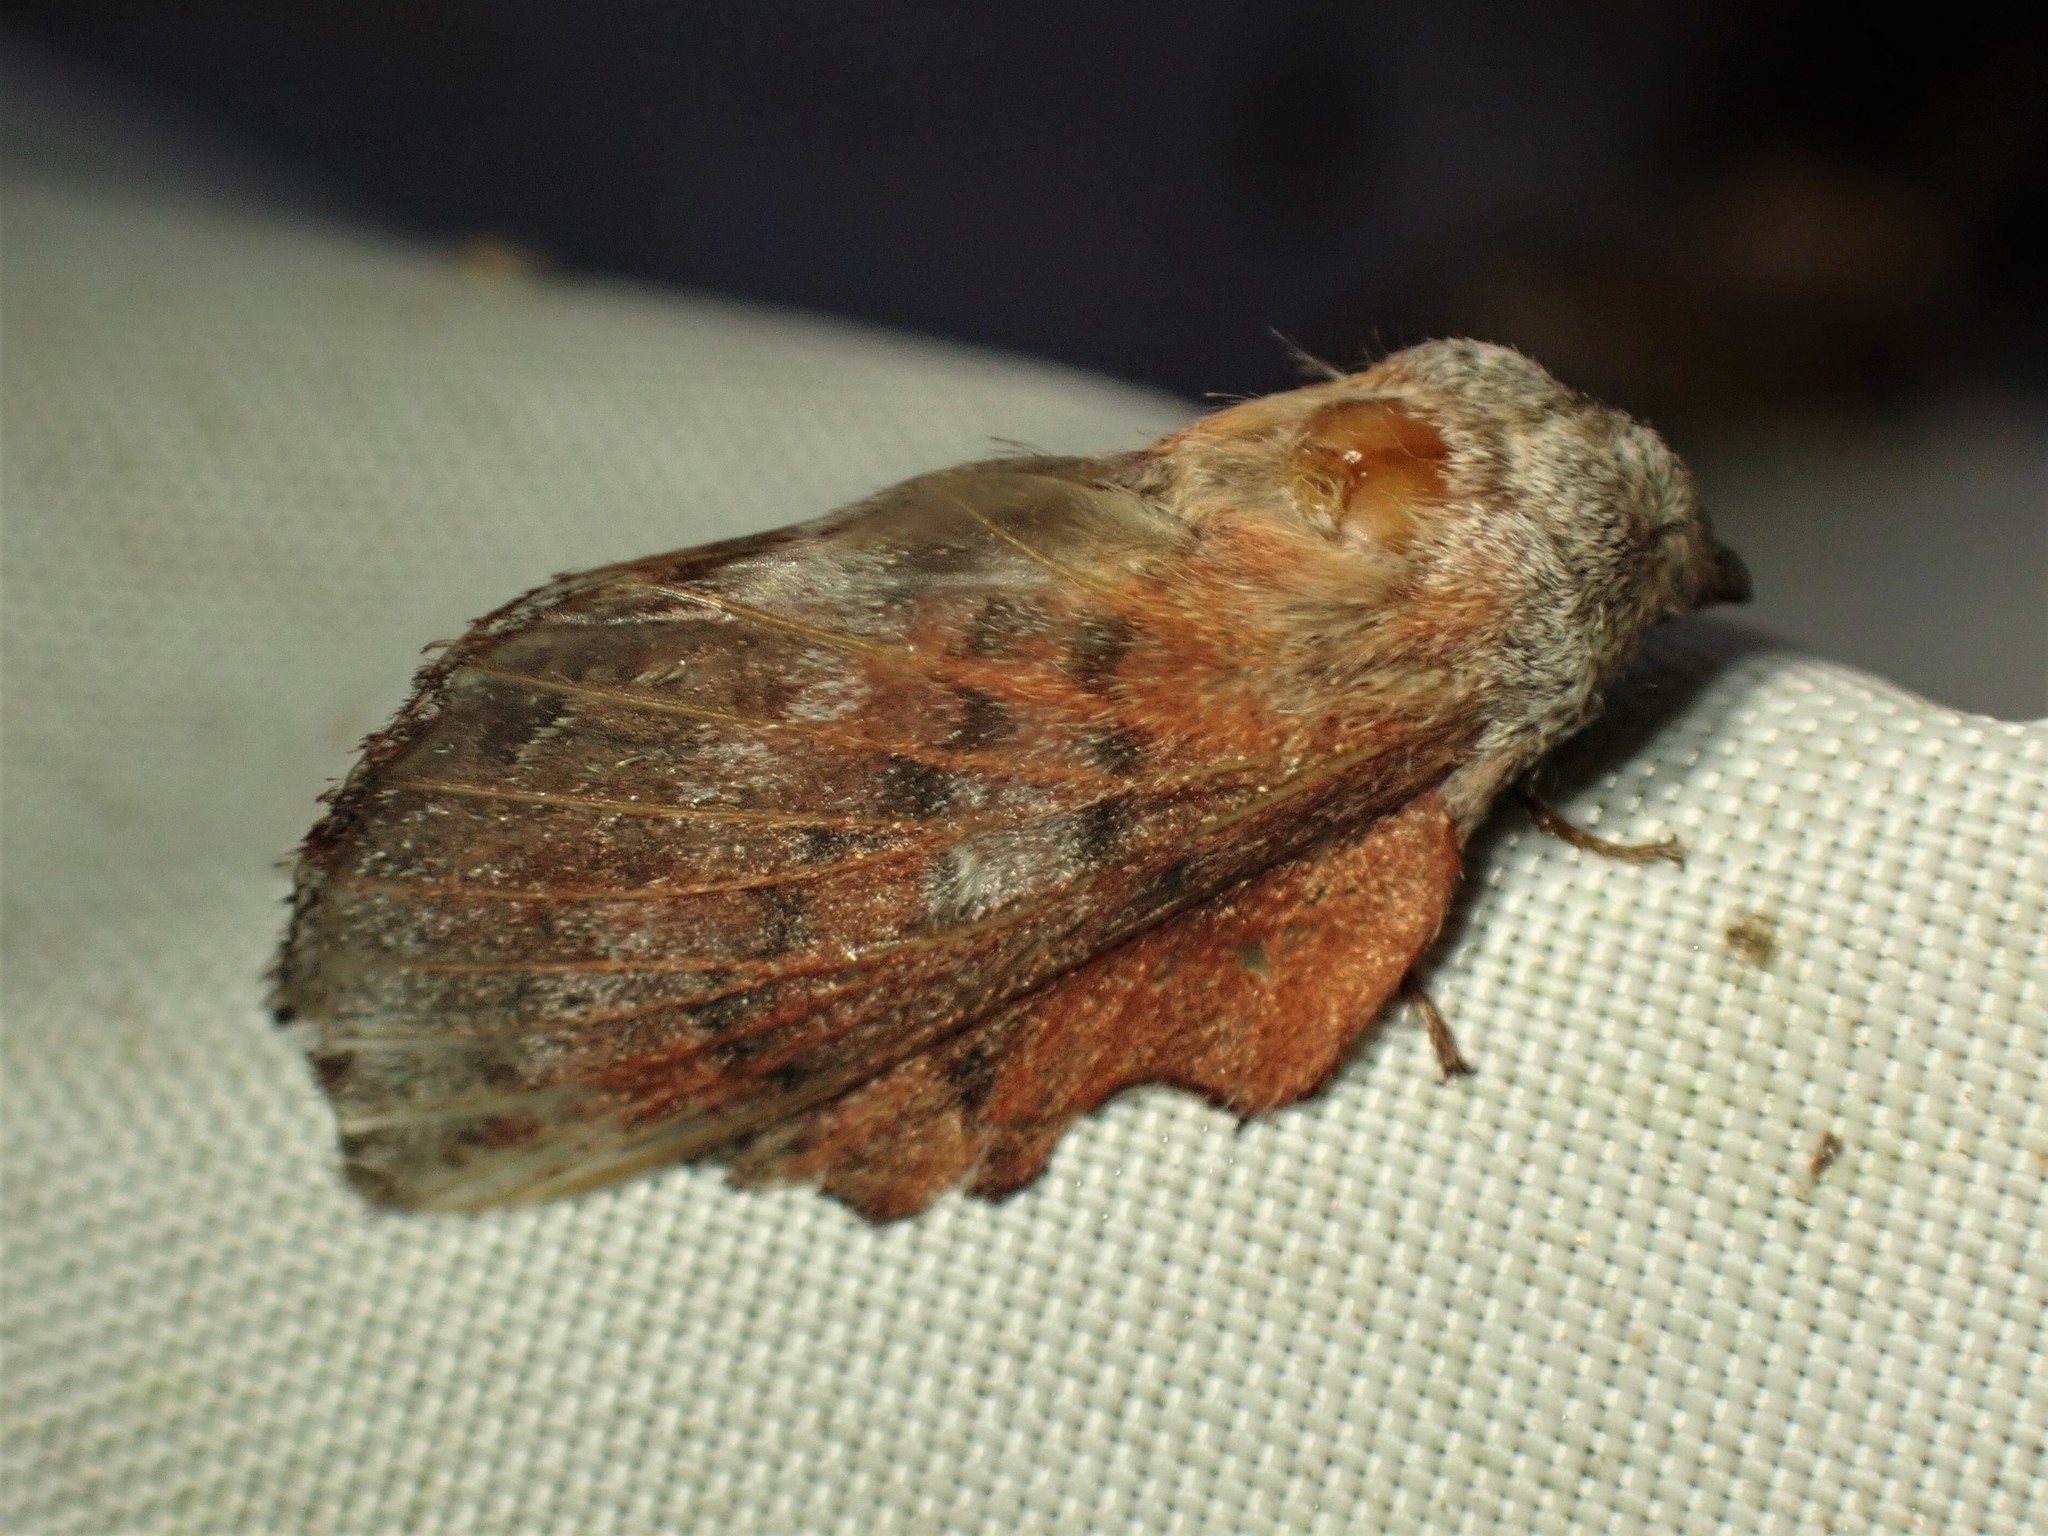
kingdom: Animalia
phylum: Arthropoda
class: Insecta
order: Lepidoptera
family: Lasiocampidae
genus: Phyllodesma
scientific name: Phyllodesma americana
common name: American lappet moth
